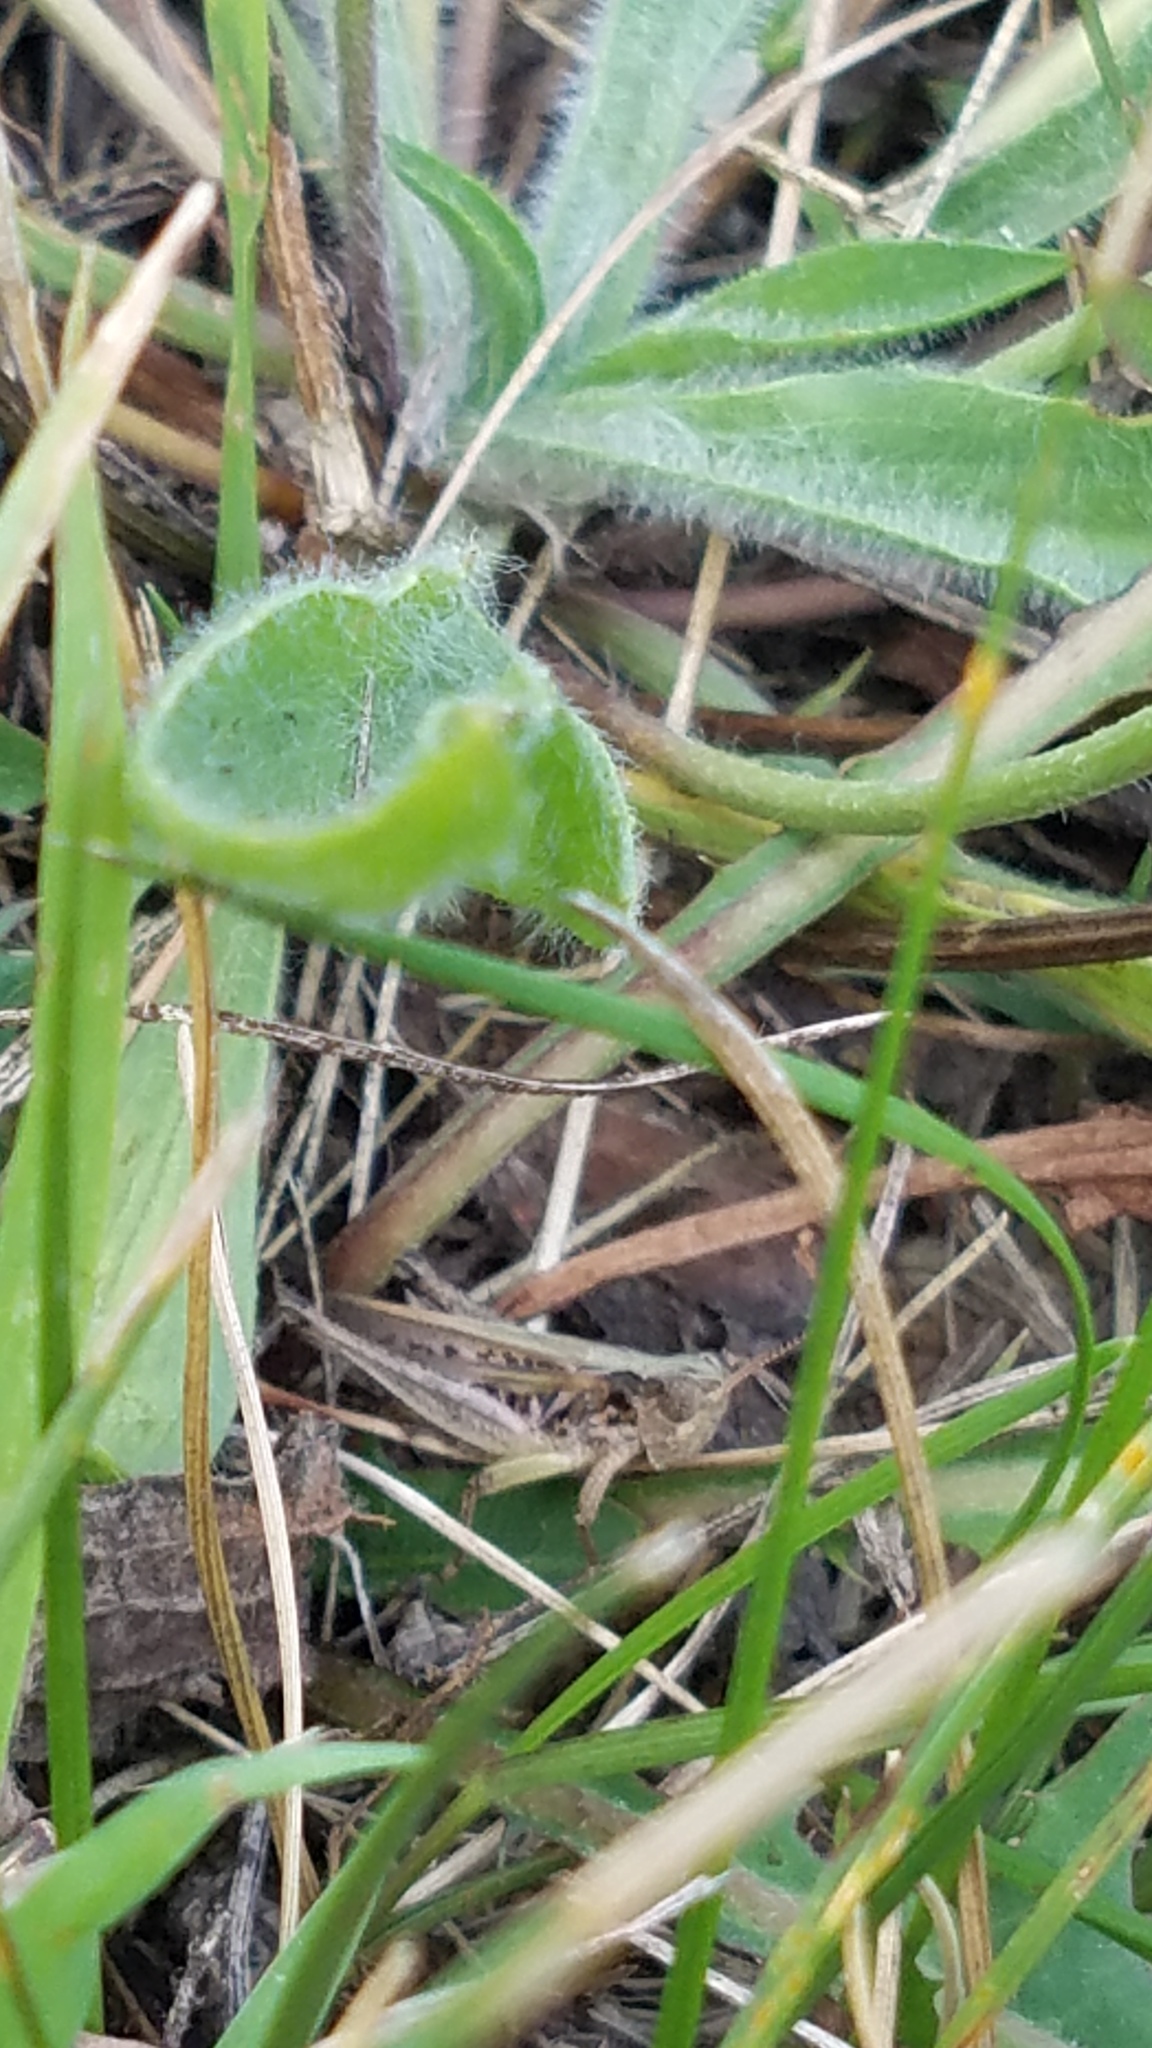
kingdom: Animalia
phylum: Arthropoda
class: Insecta
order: Orthoptera
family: Acrididae
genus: Orphulella
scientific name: Orphulella speciosa
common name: Pasture grasshopper
